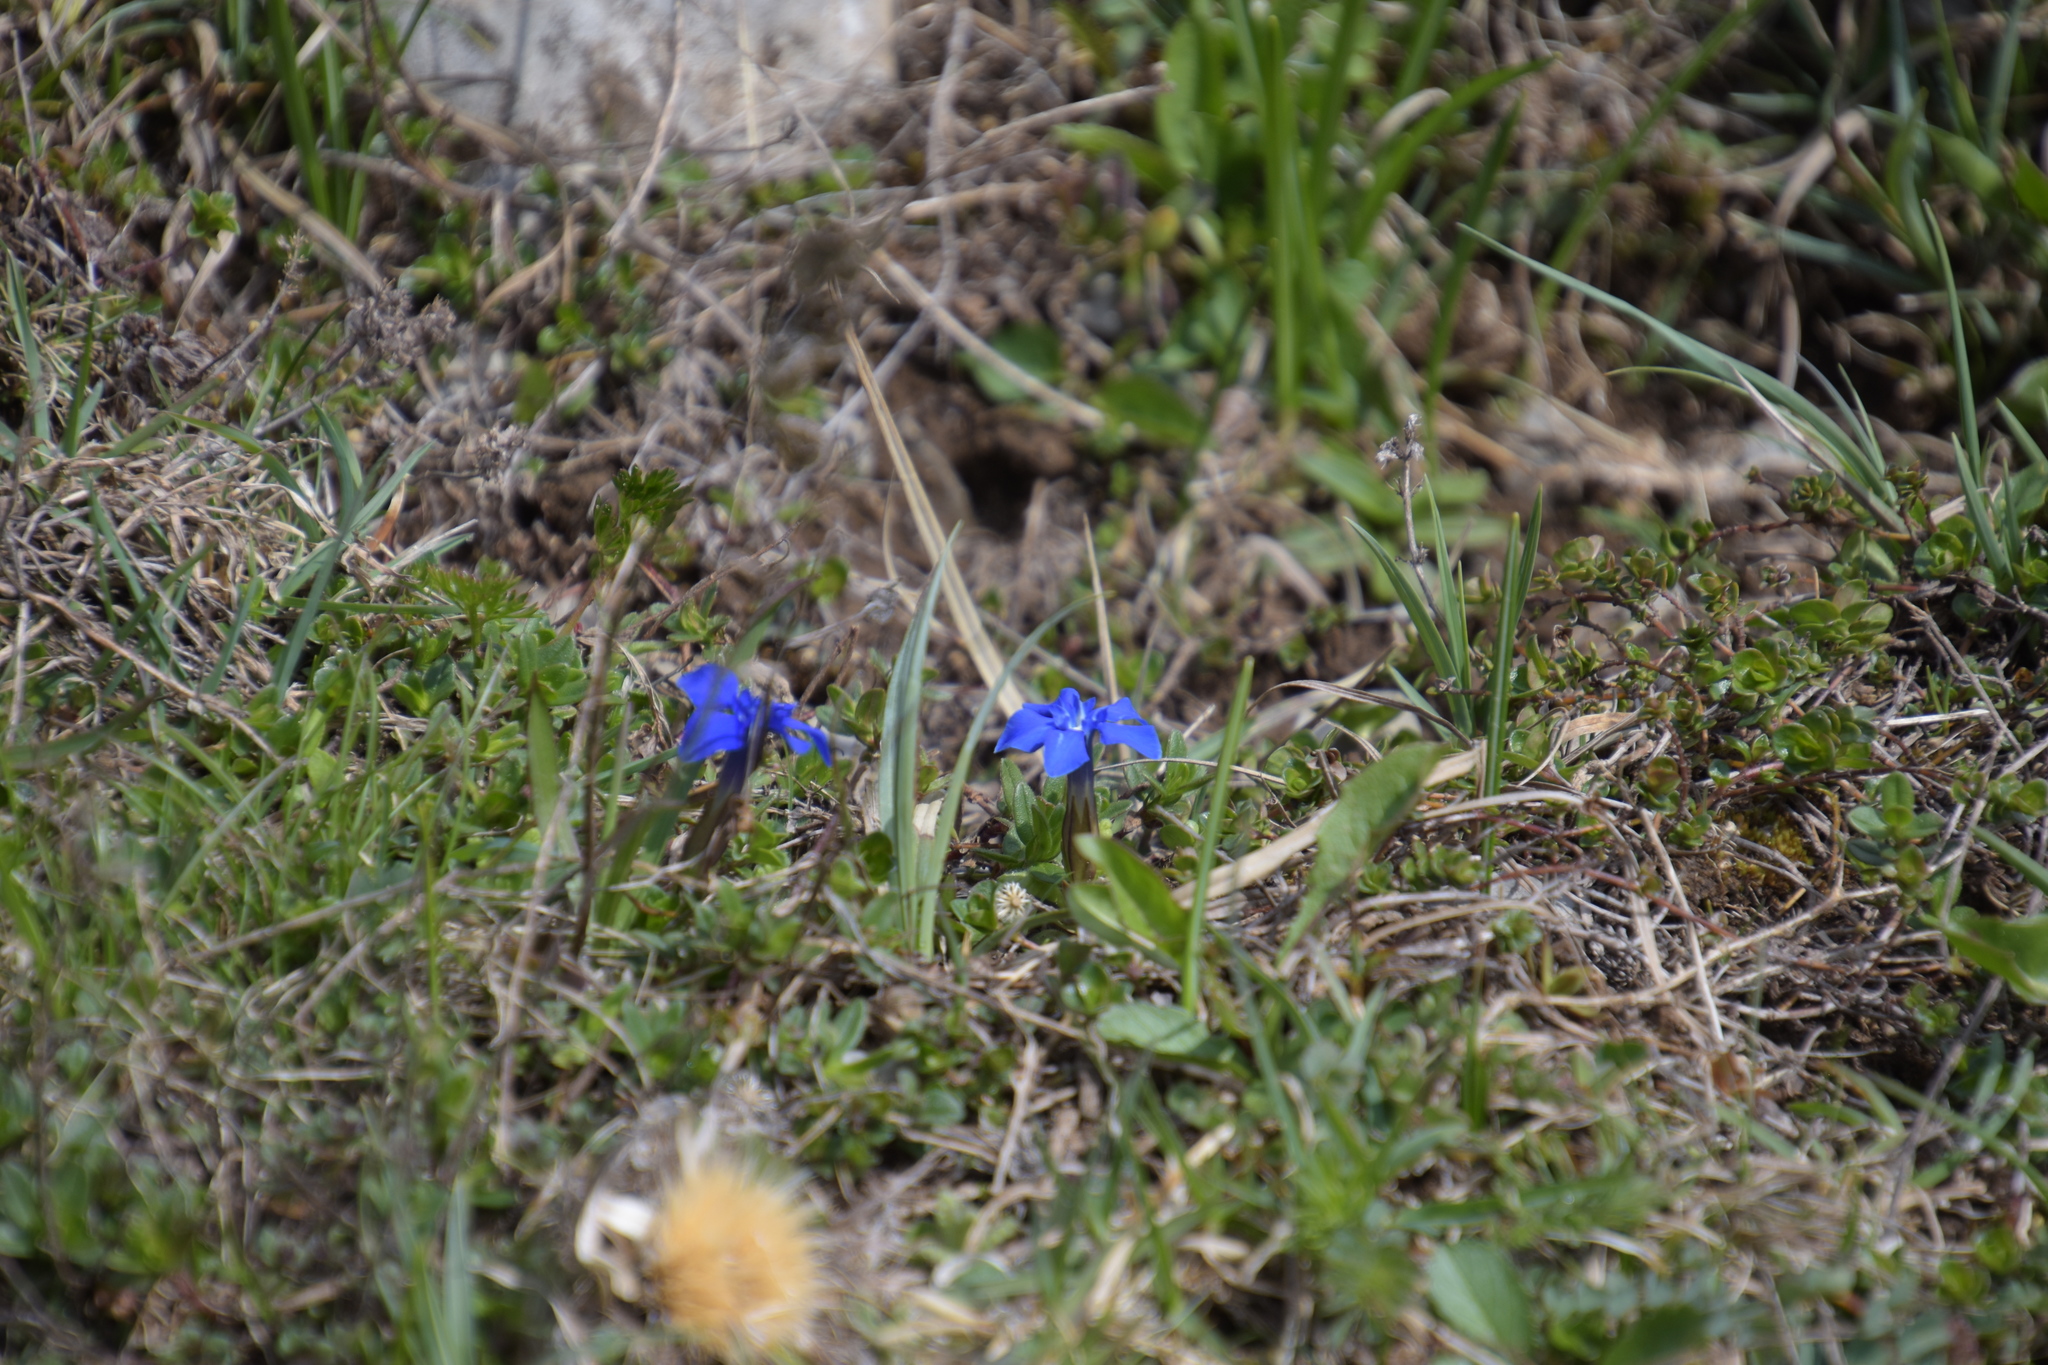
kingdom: Plantae
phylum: Tracheophyta
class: Magnoliopsida
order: Gentianales
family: Gentianaceae
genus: Gentiana
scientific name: Gentiana verna
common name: Spring gentian
